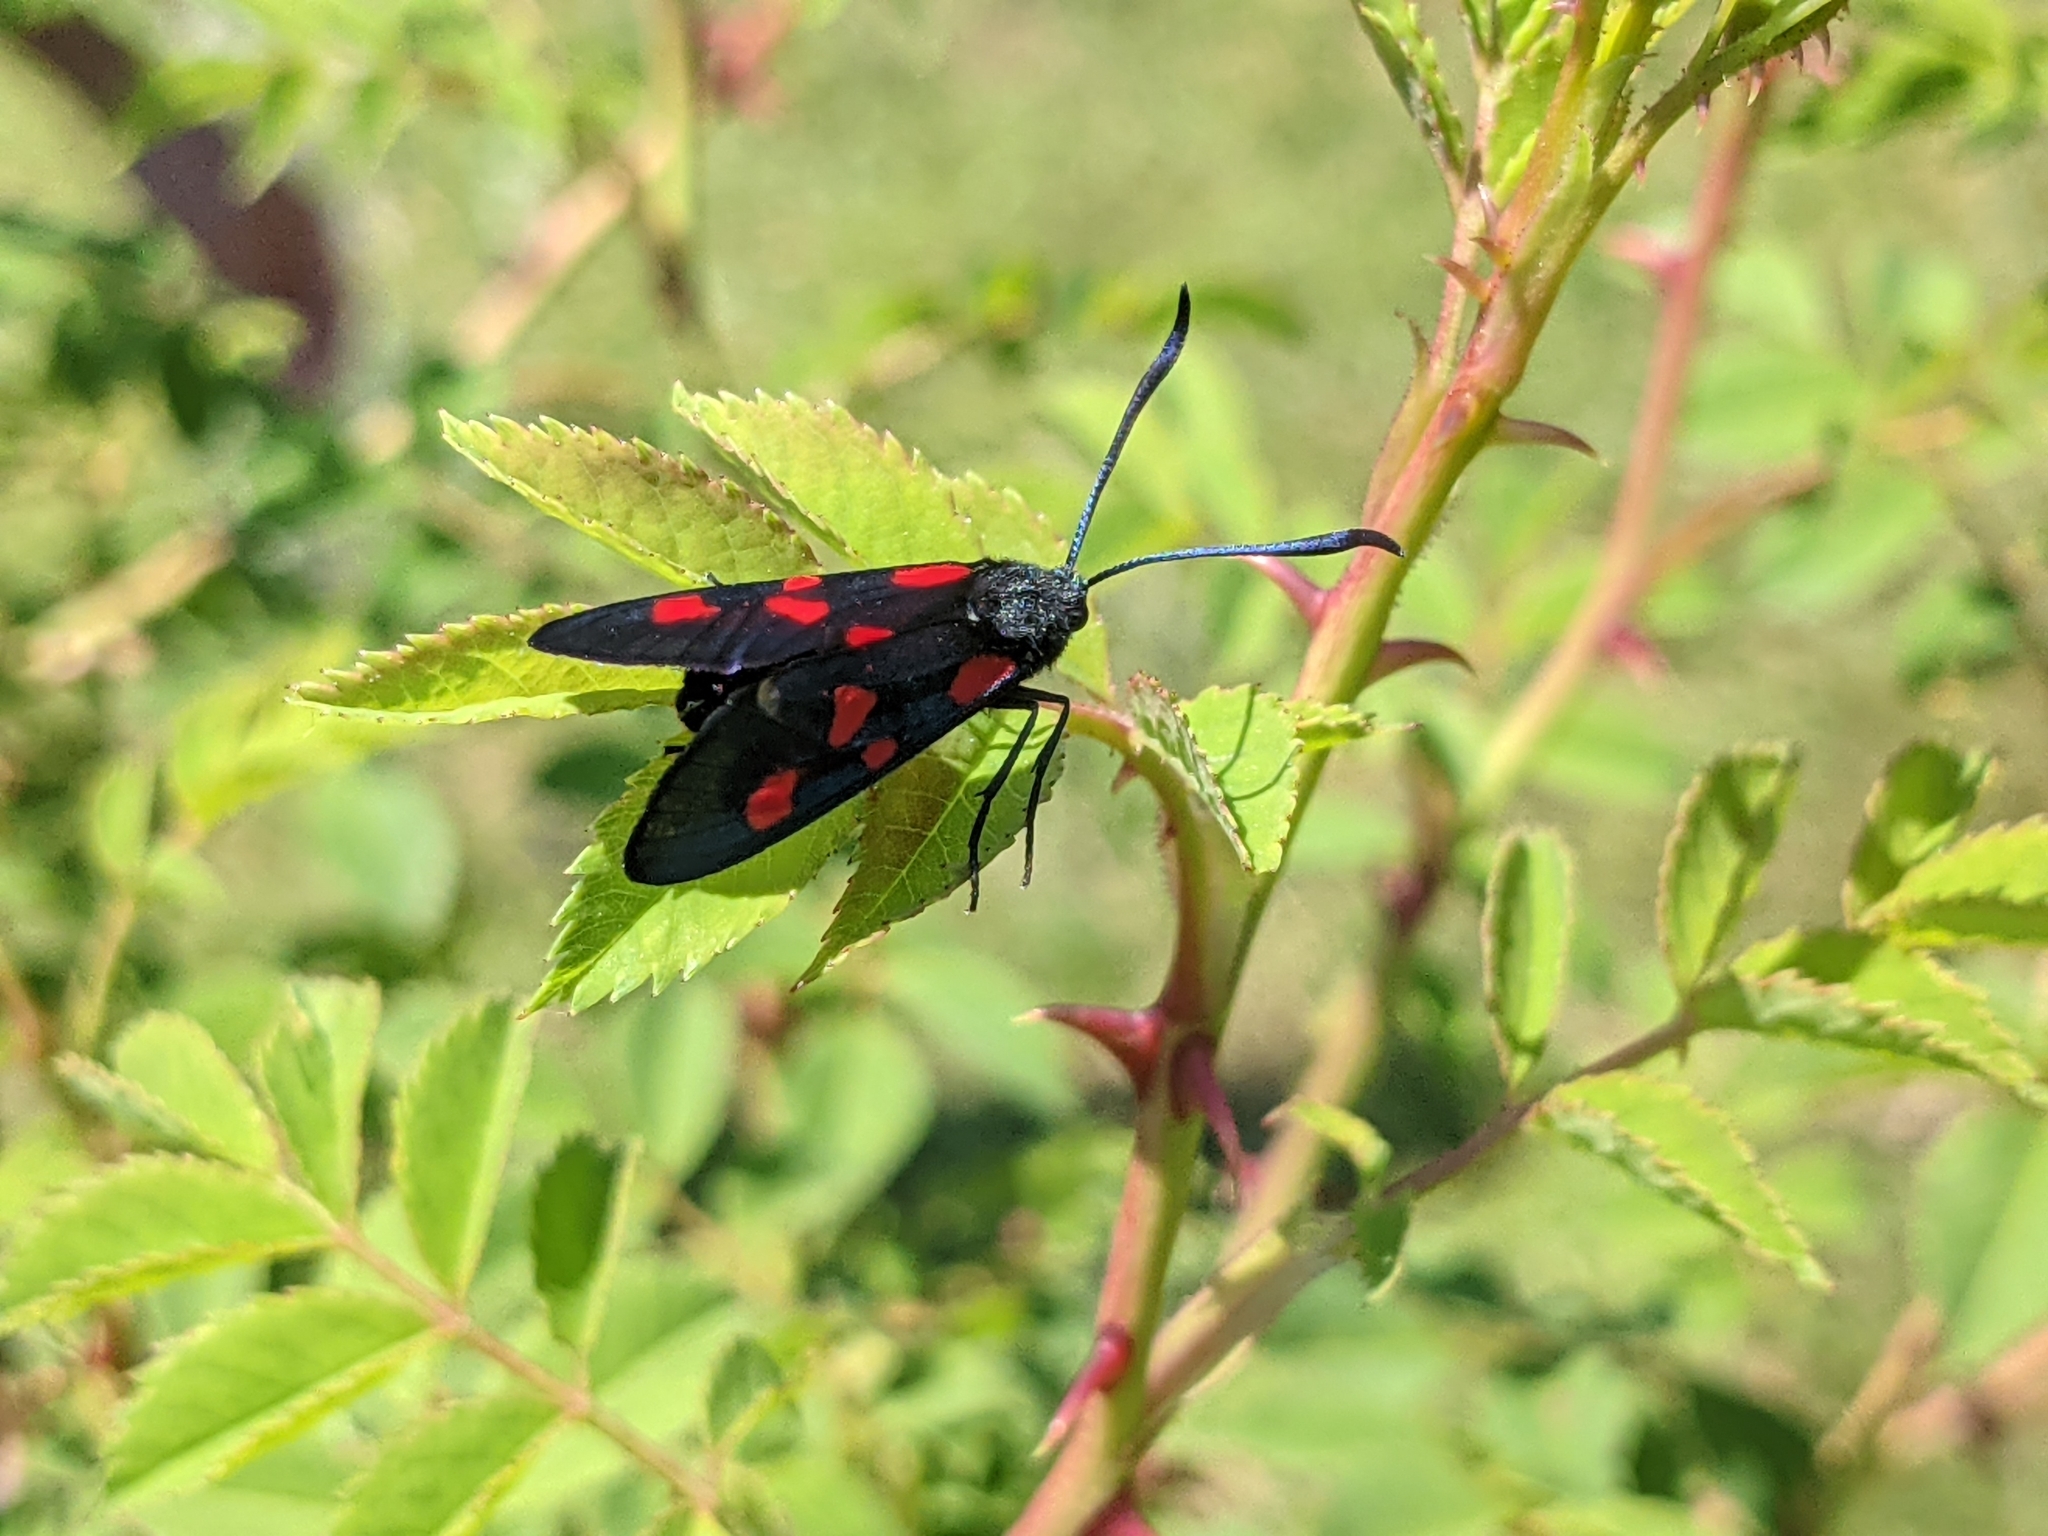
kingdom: Animalia
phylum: Arthropoda
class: Insecta
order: Lepidoptera
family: Zygaenidae
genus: Zygaena
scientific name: Zygaena lonicerae
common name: Narrow-bordered five-spot burnet
